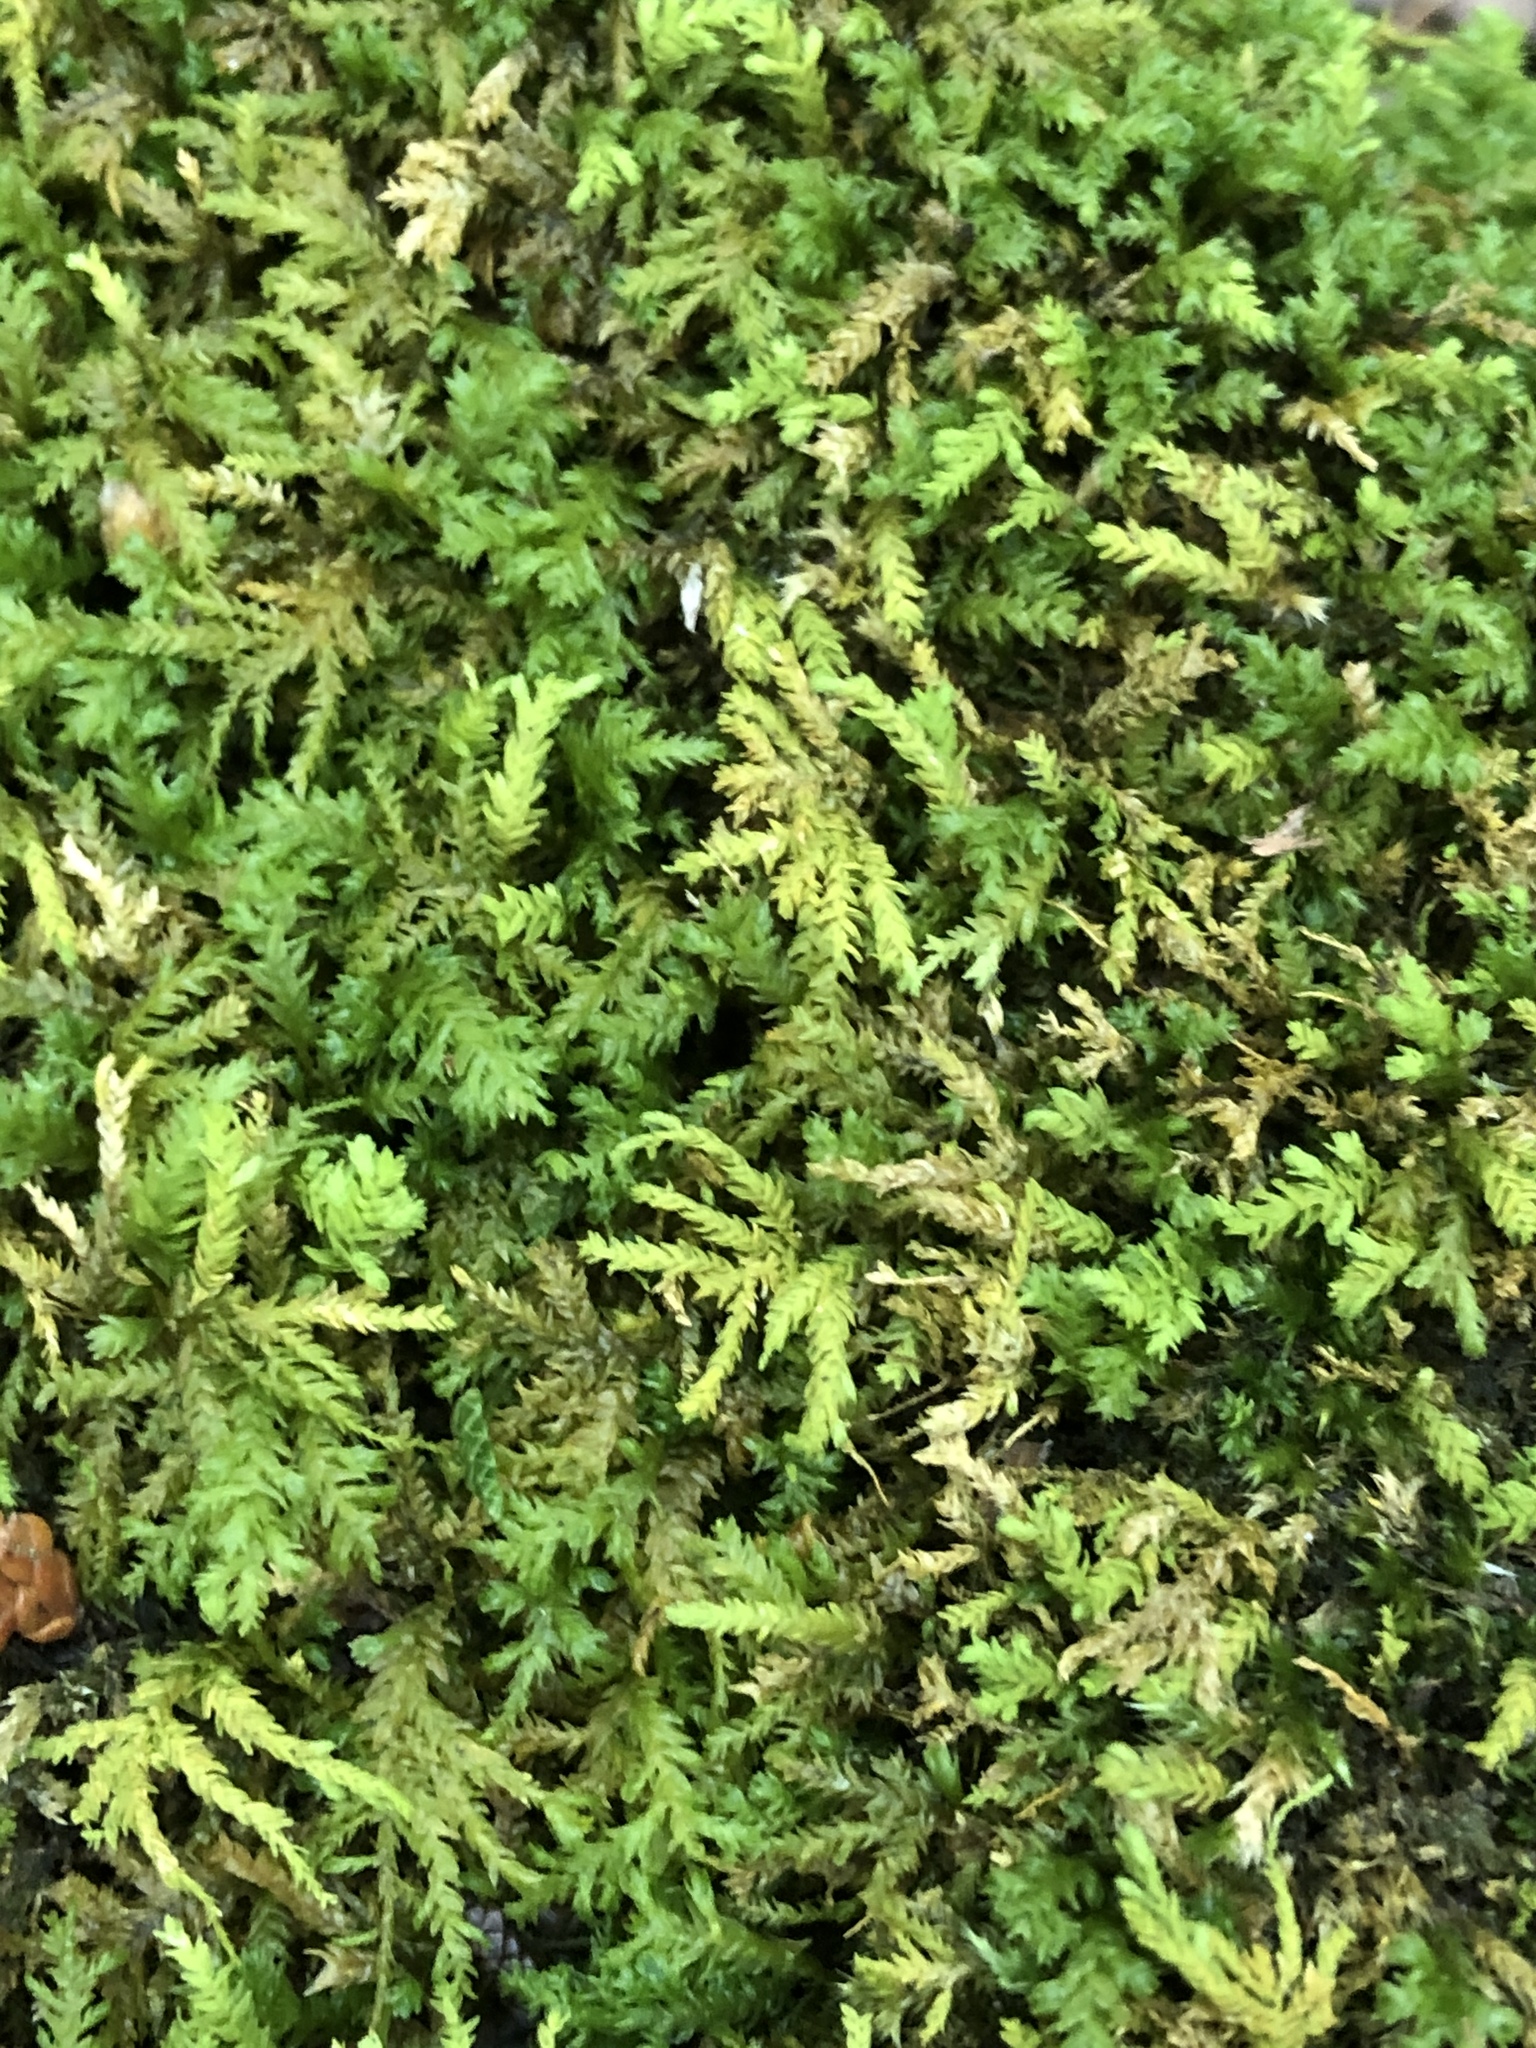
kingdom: Plantae
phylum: Bryophyta
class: Bryopsida
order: Hypnales
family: Neckeraceae
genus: Pseudanomodon
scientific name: Pseudanomodon attenuatus
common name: Tree-skirt moss
